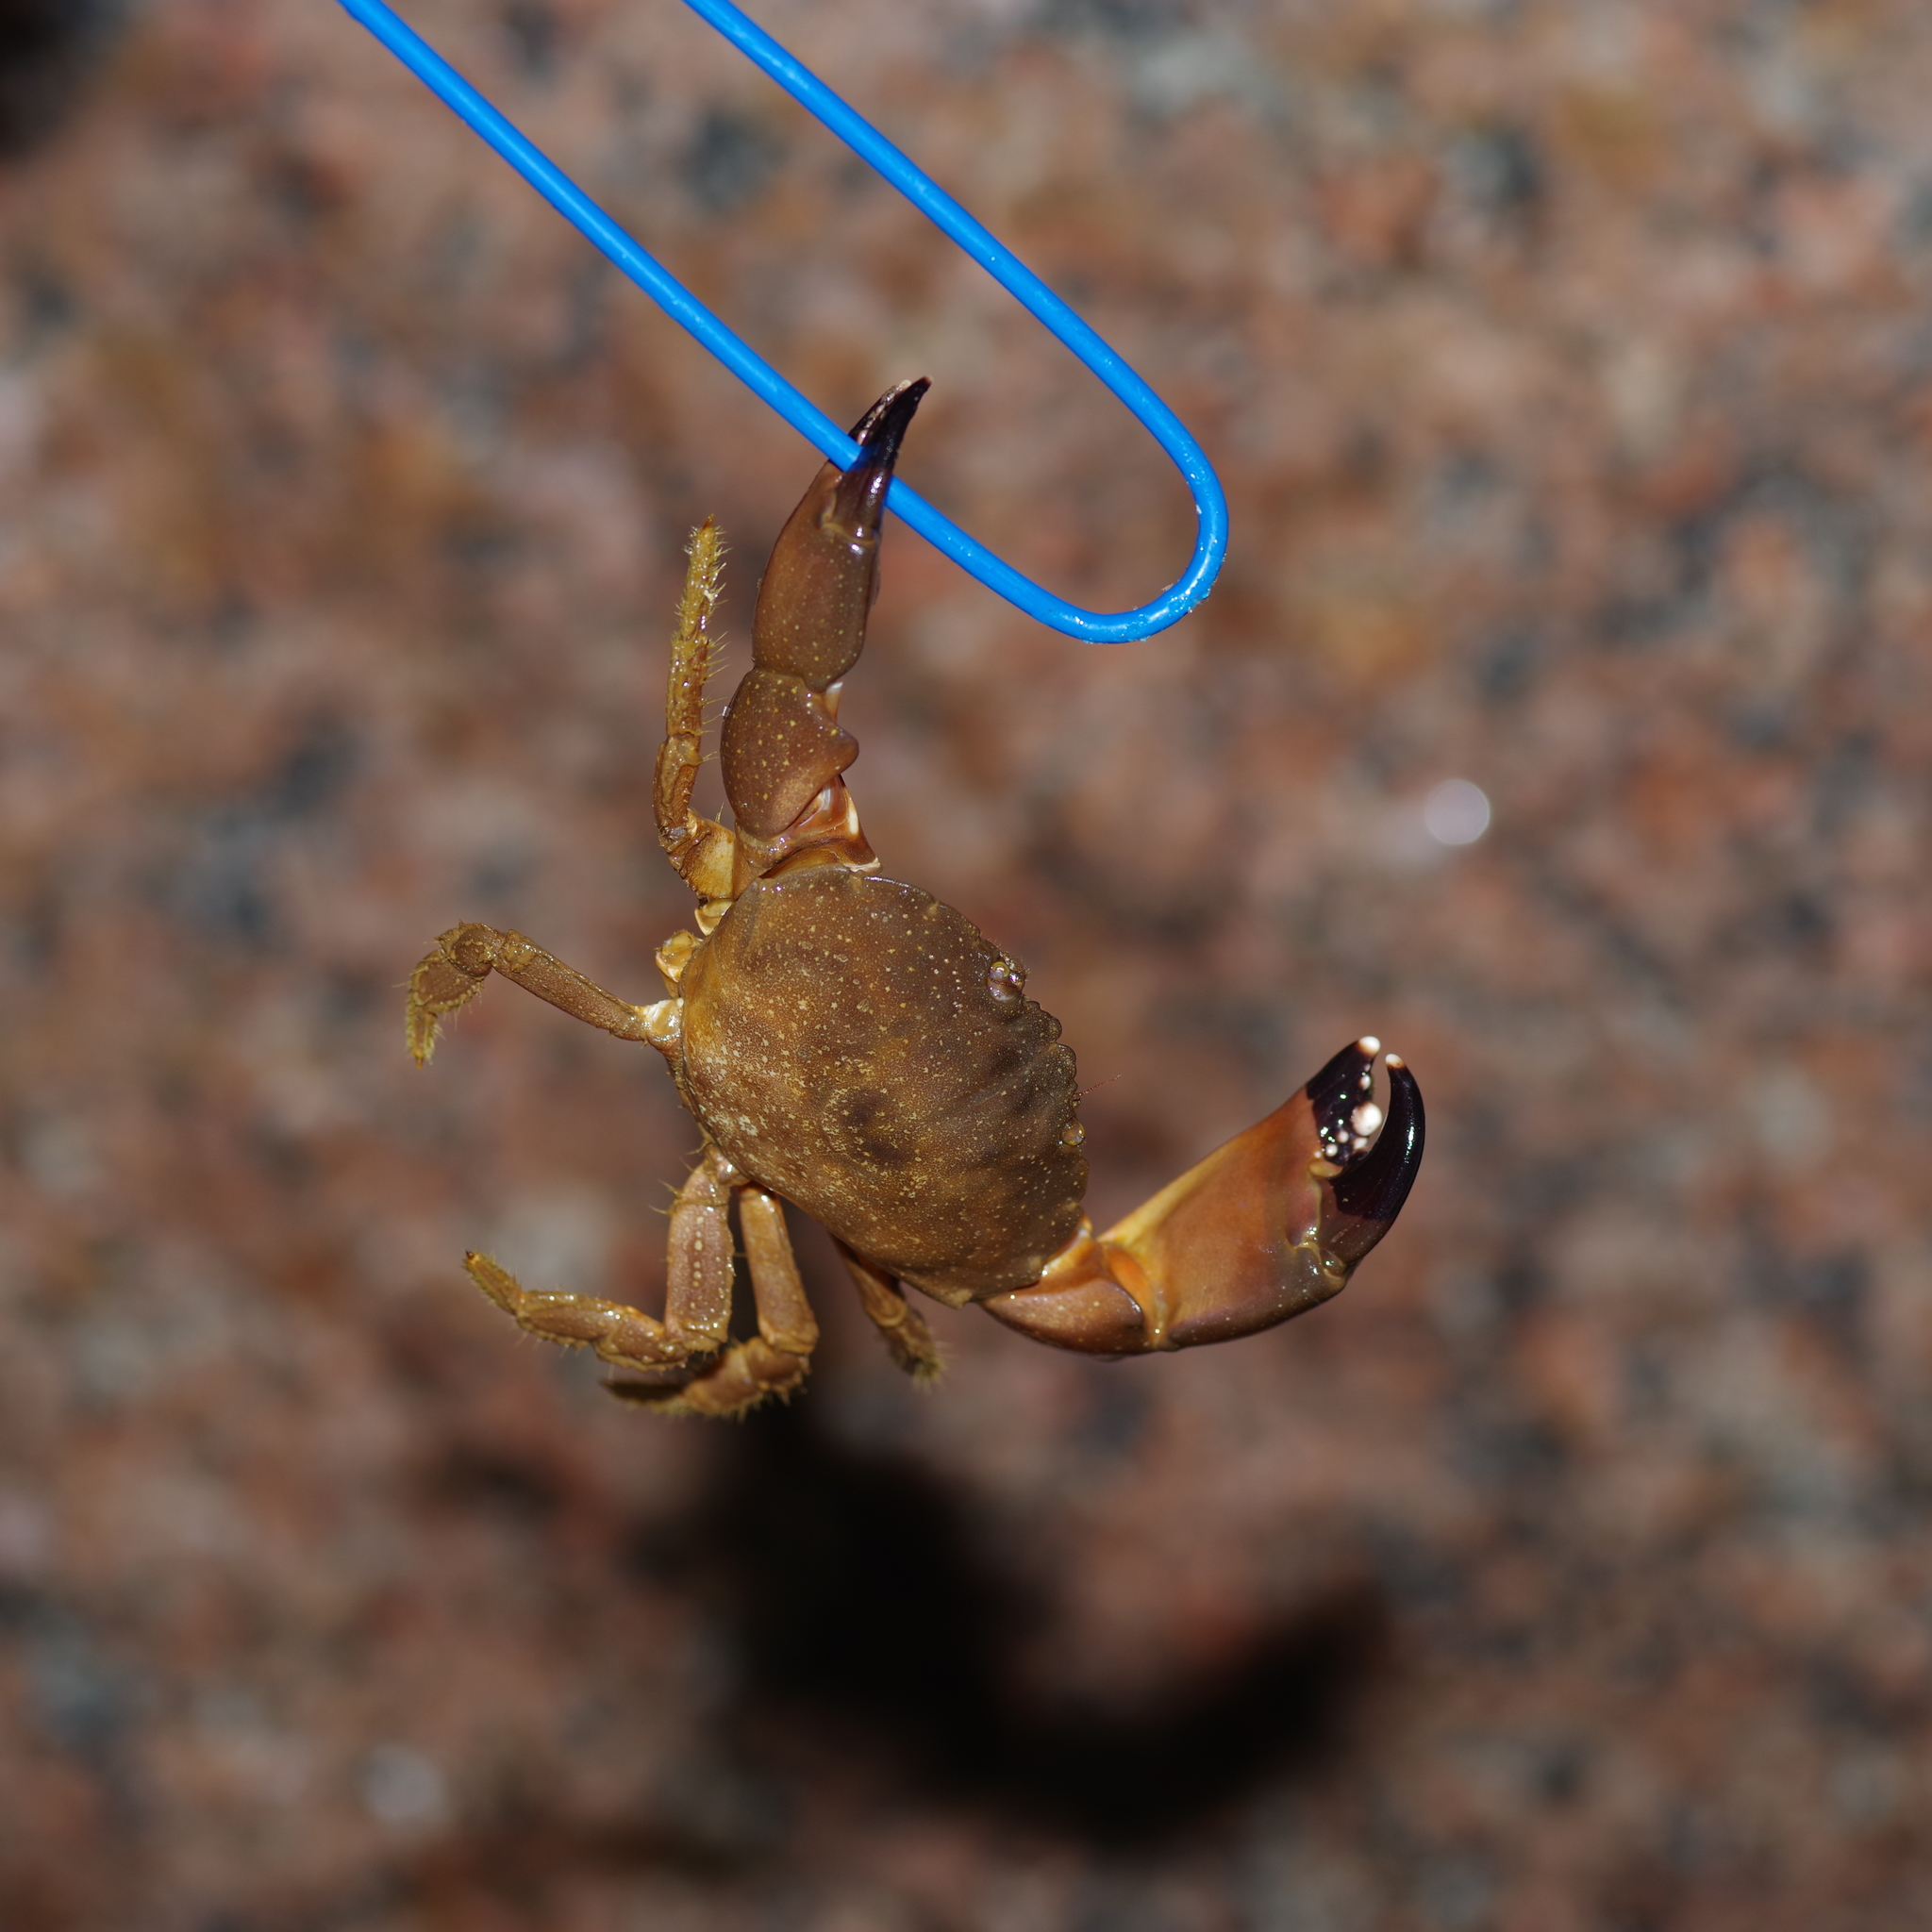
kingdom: Animalia
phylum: Arthropoda
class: Malacostraca
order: Decapoda
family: Menippidae
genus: Menippe
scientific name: Menippe adina
